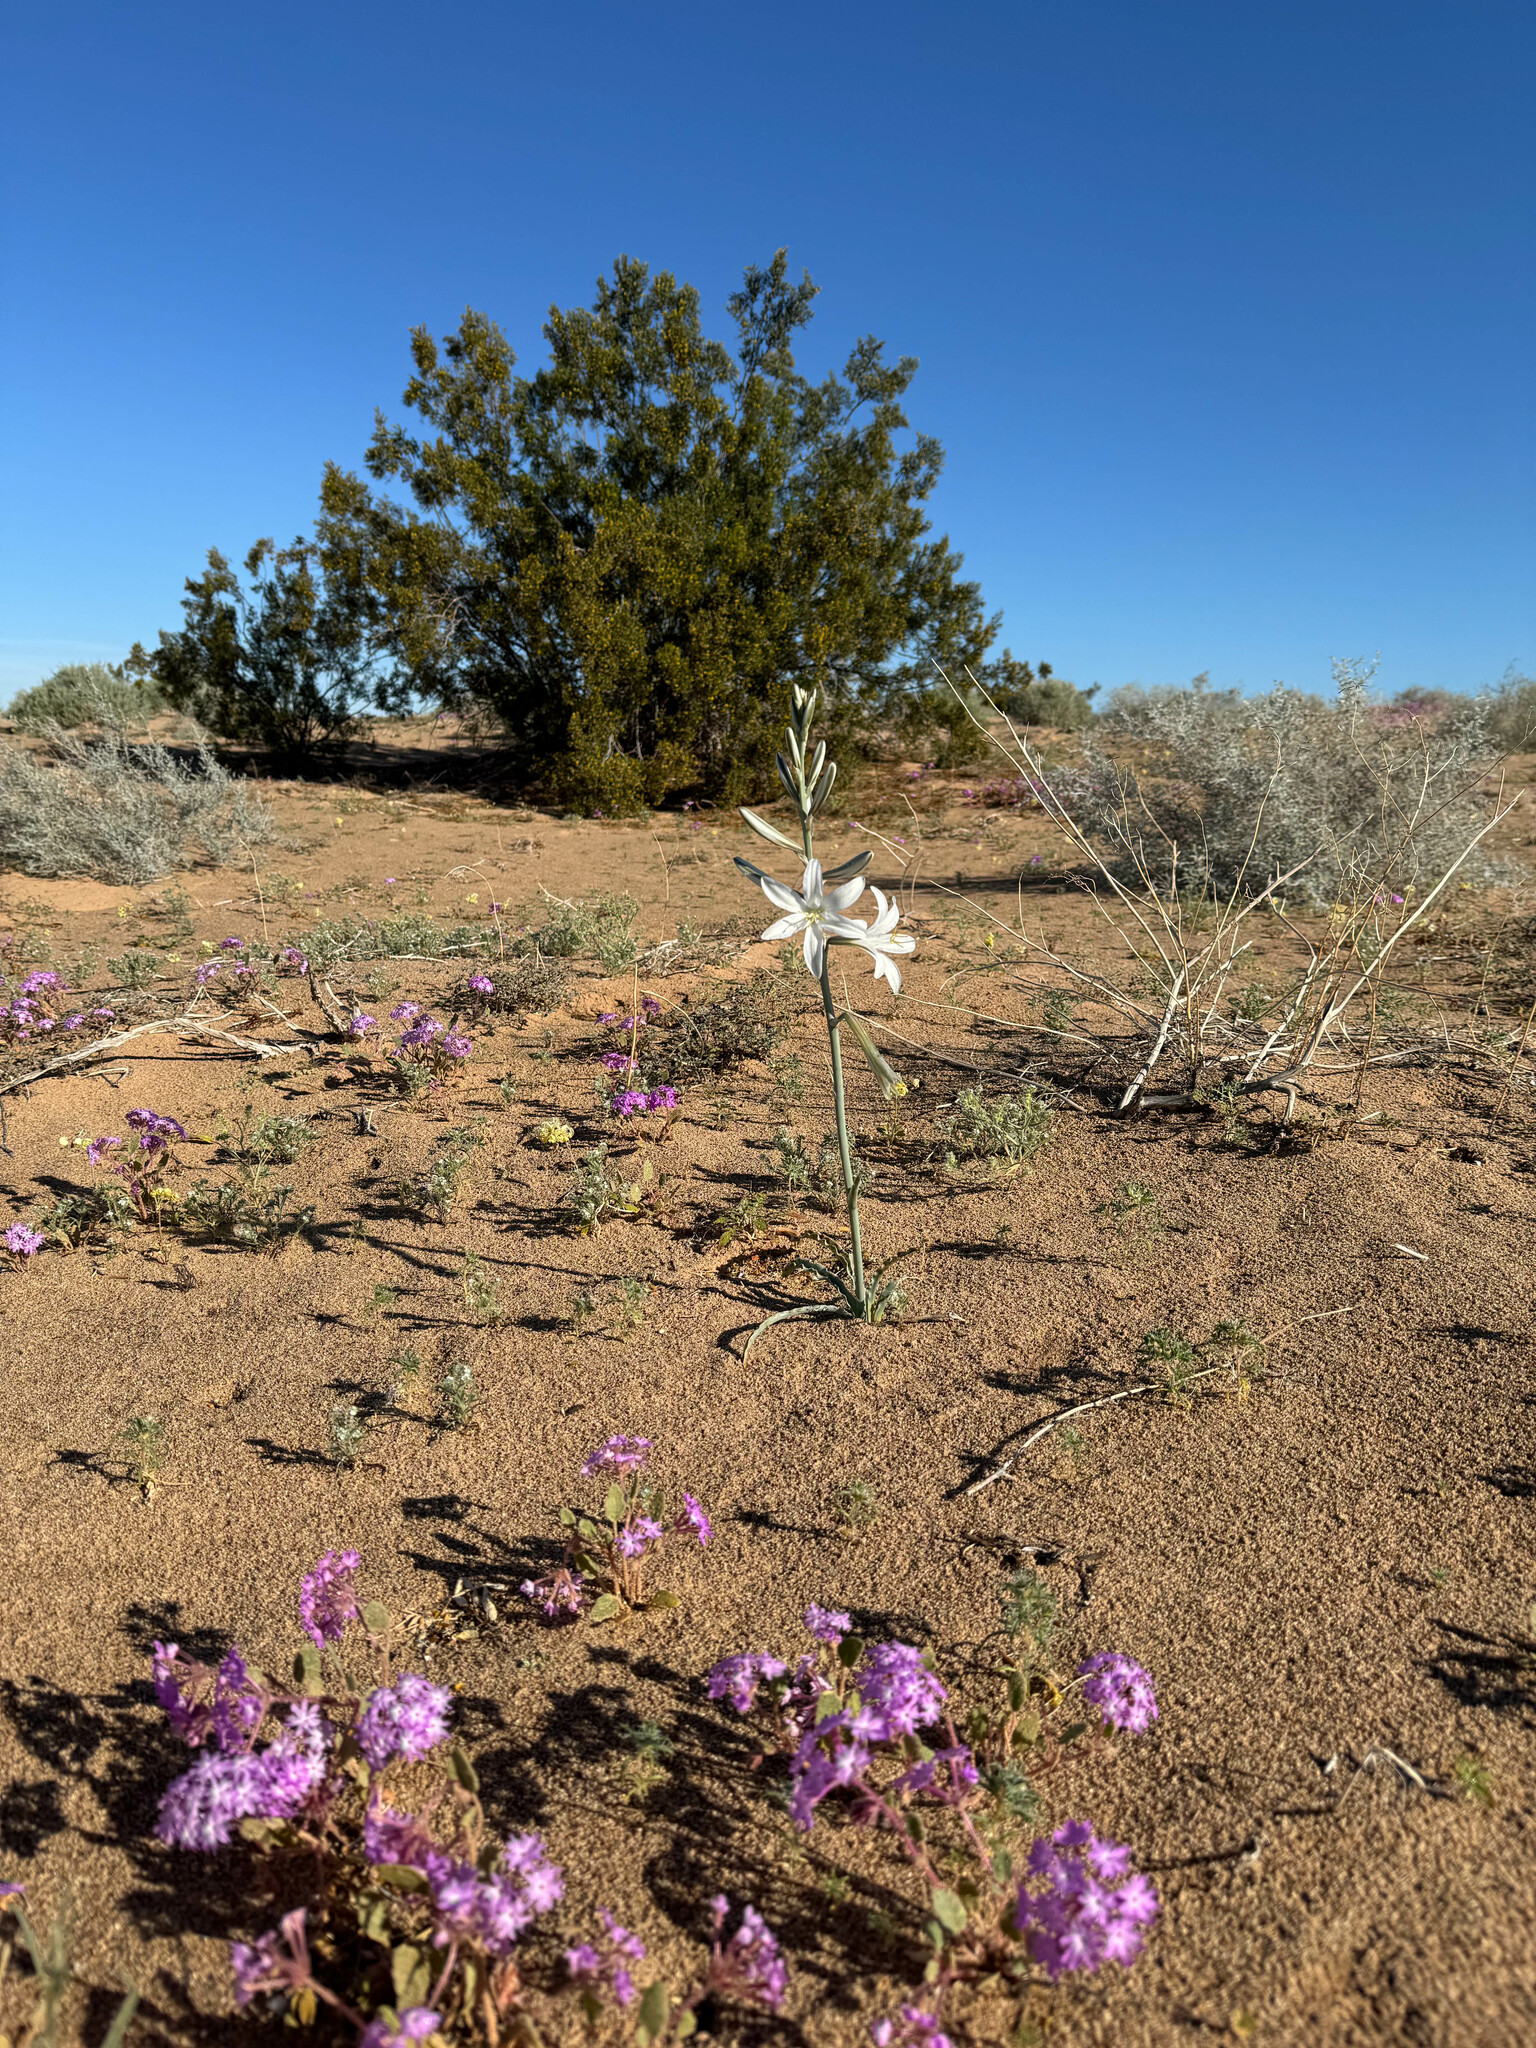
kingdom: Plantae
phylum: Tracheophyta
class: Liliopsida
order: Asparagales
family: Asparagaceae
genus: Hesperocallis
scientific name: Hesperocallis undulata
